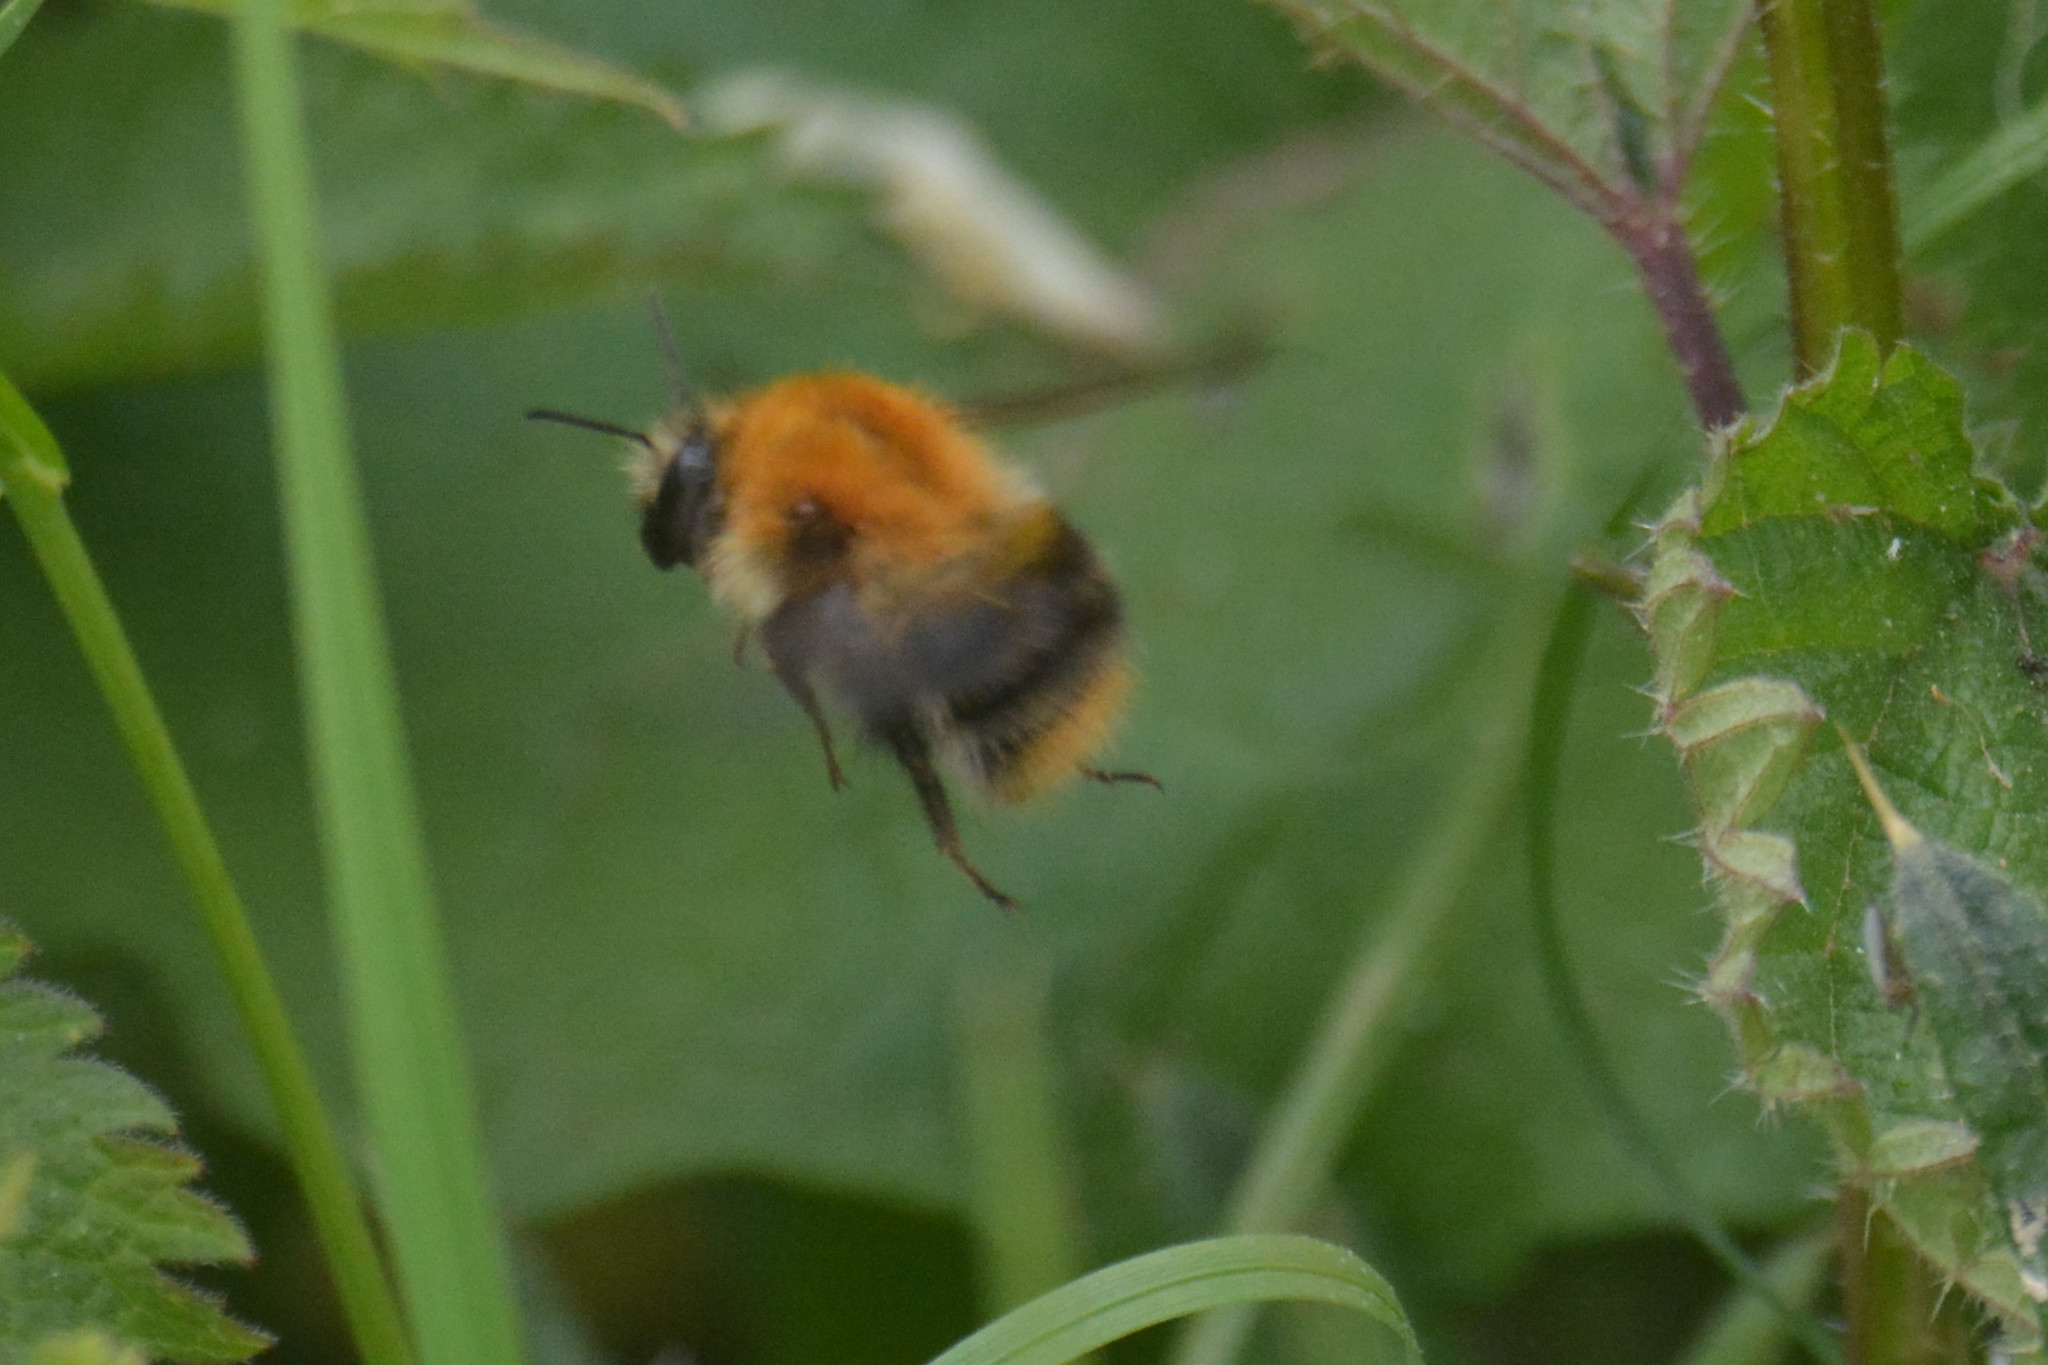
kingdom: Animalia
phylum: Arthropoda
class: Insecta
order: Hymenoptera
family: Apidae
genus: Bombus
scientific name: Bombus pascuorum
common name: Common carder bee
